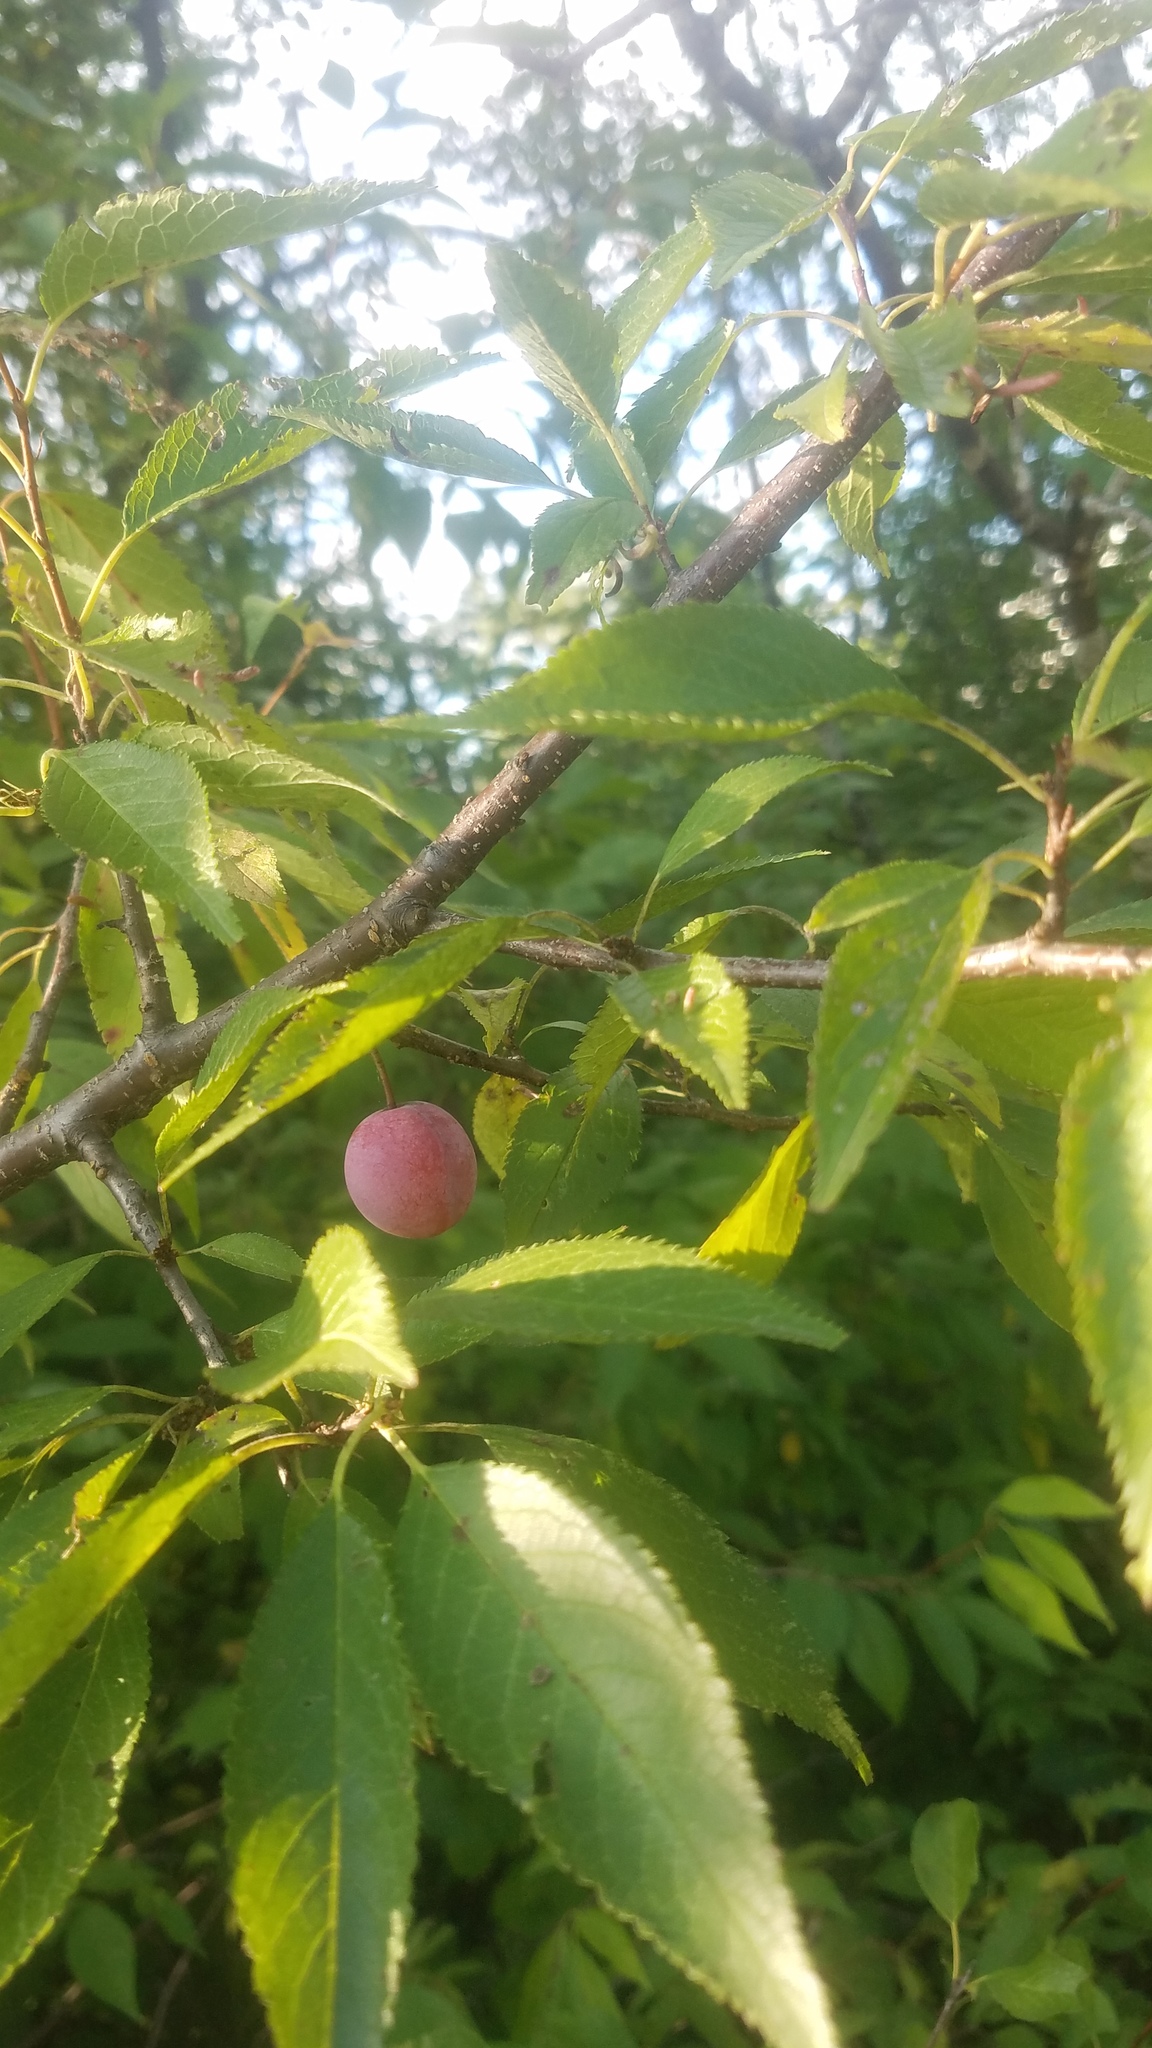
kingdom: Plantae
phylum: Tracheophyta
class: Magnoliopsida
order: Rosales
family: Rosaceae
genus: Prunus
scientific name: Prunus americana
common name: American plum
